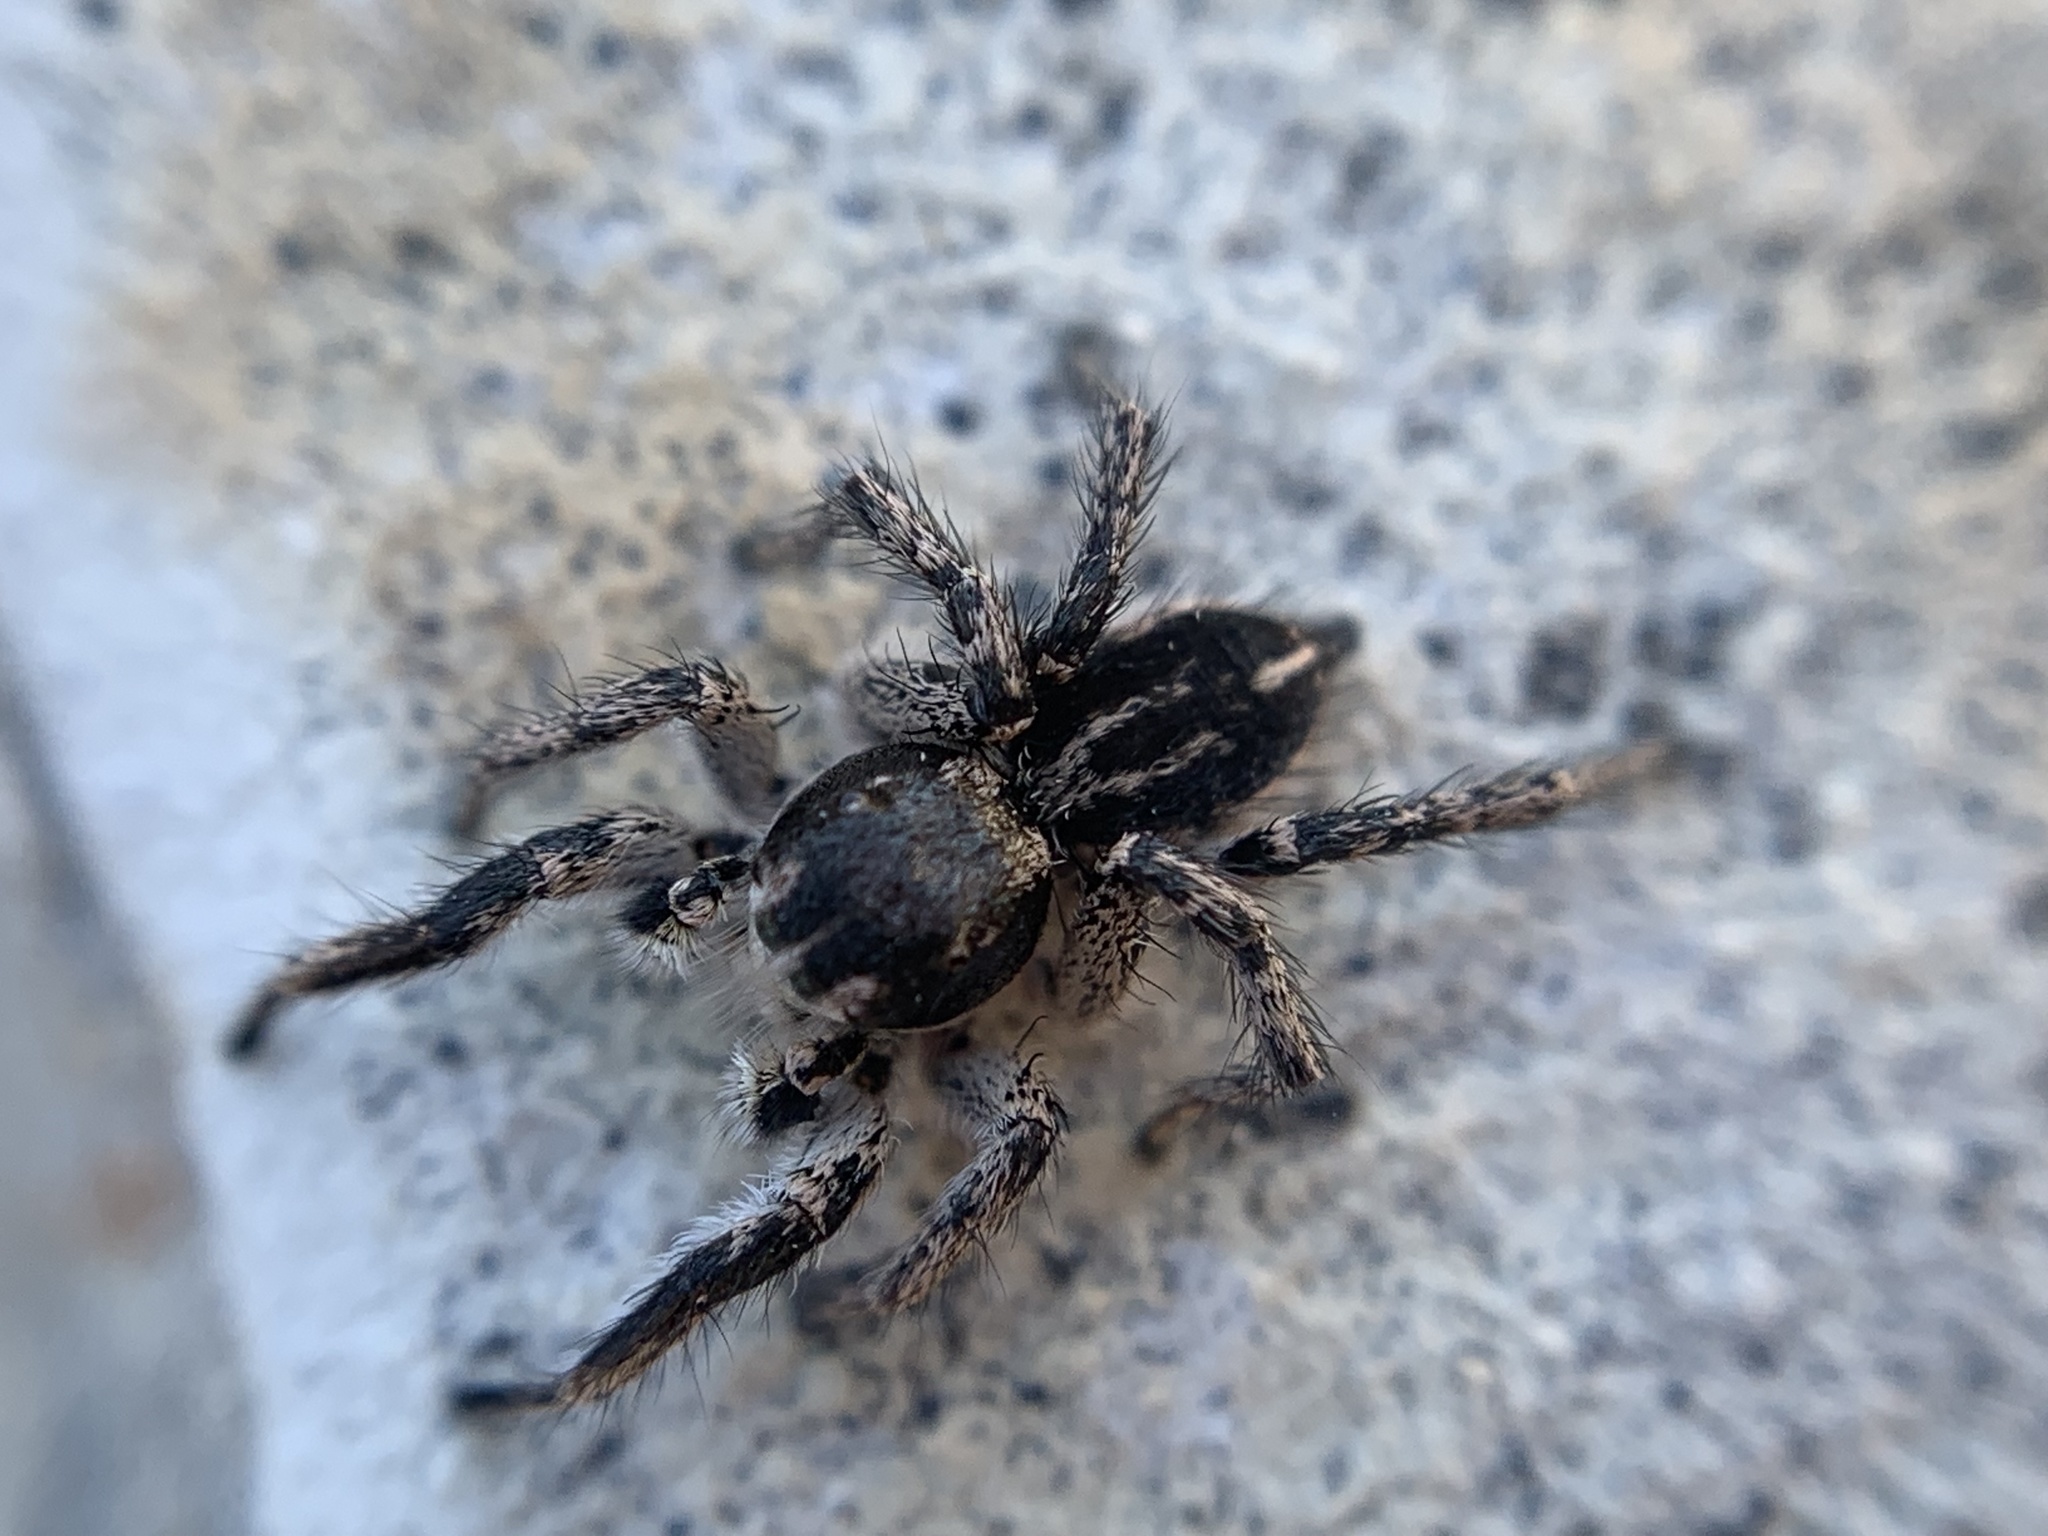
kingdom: Animalia
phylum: Arthropoda
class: Arachnida
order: Araneae
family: Salticidae
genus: Habronattus
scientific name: Habronattus tarsalis
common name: Jumping spider
